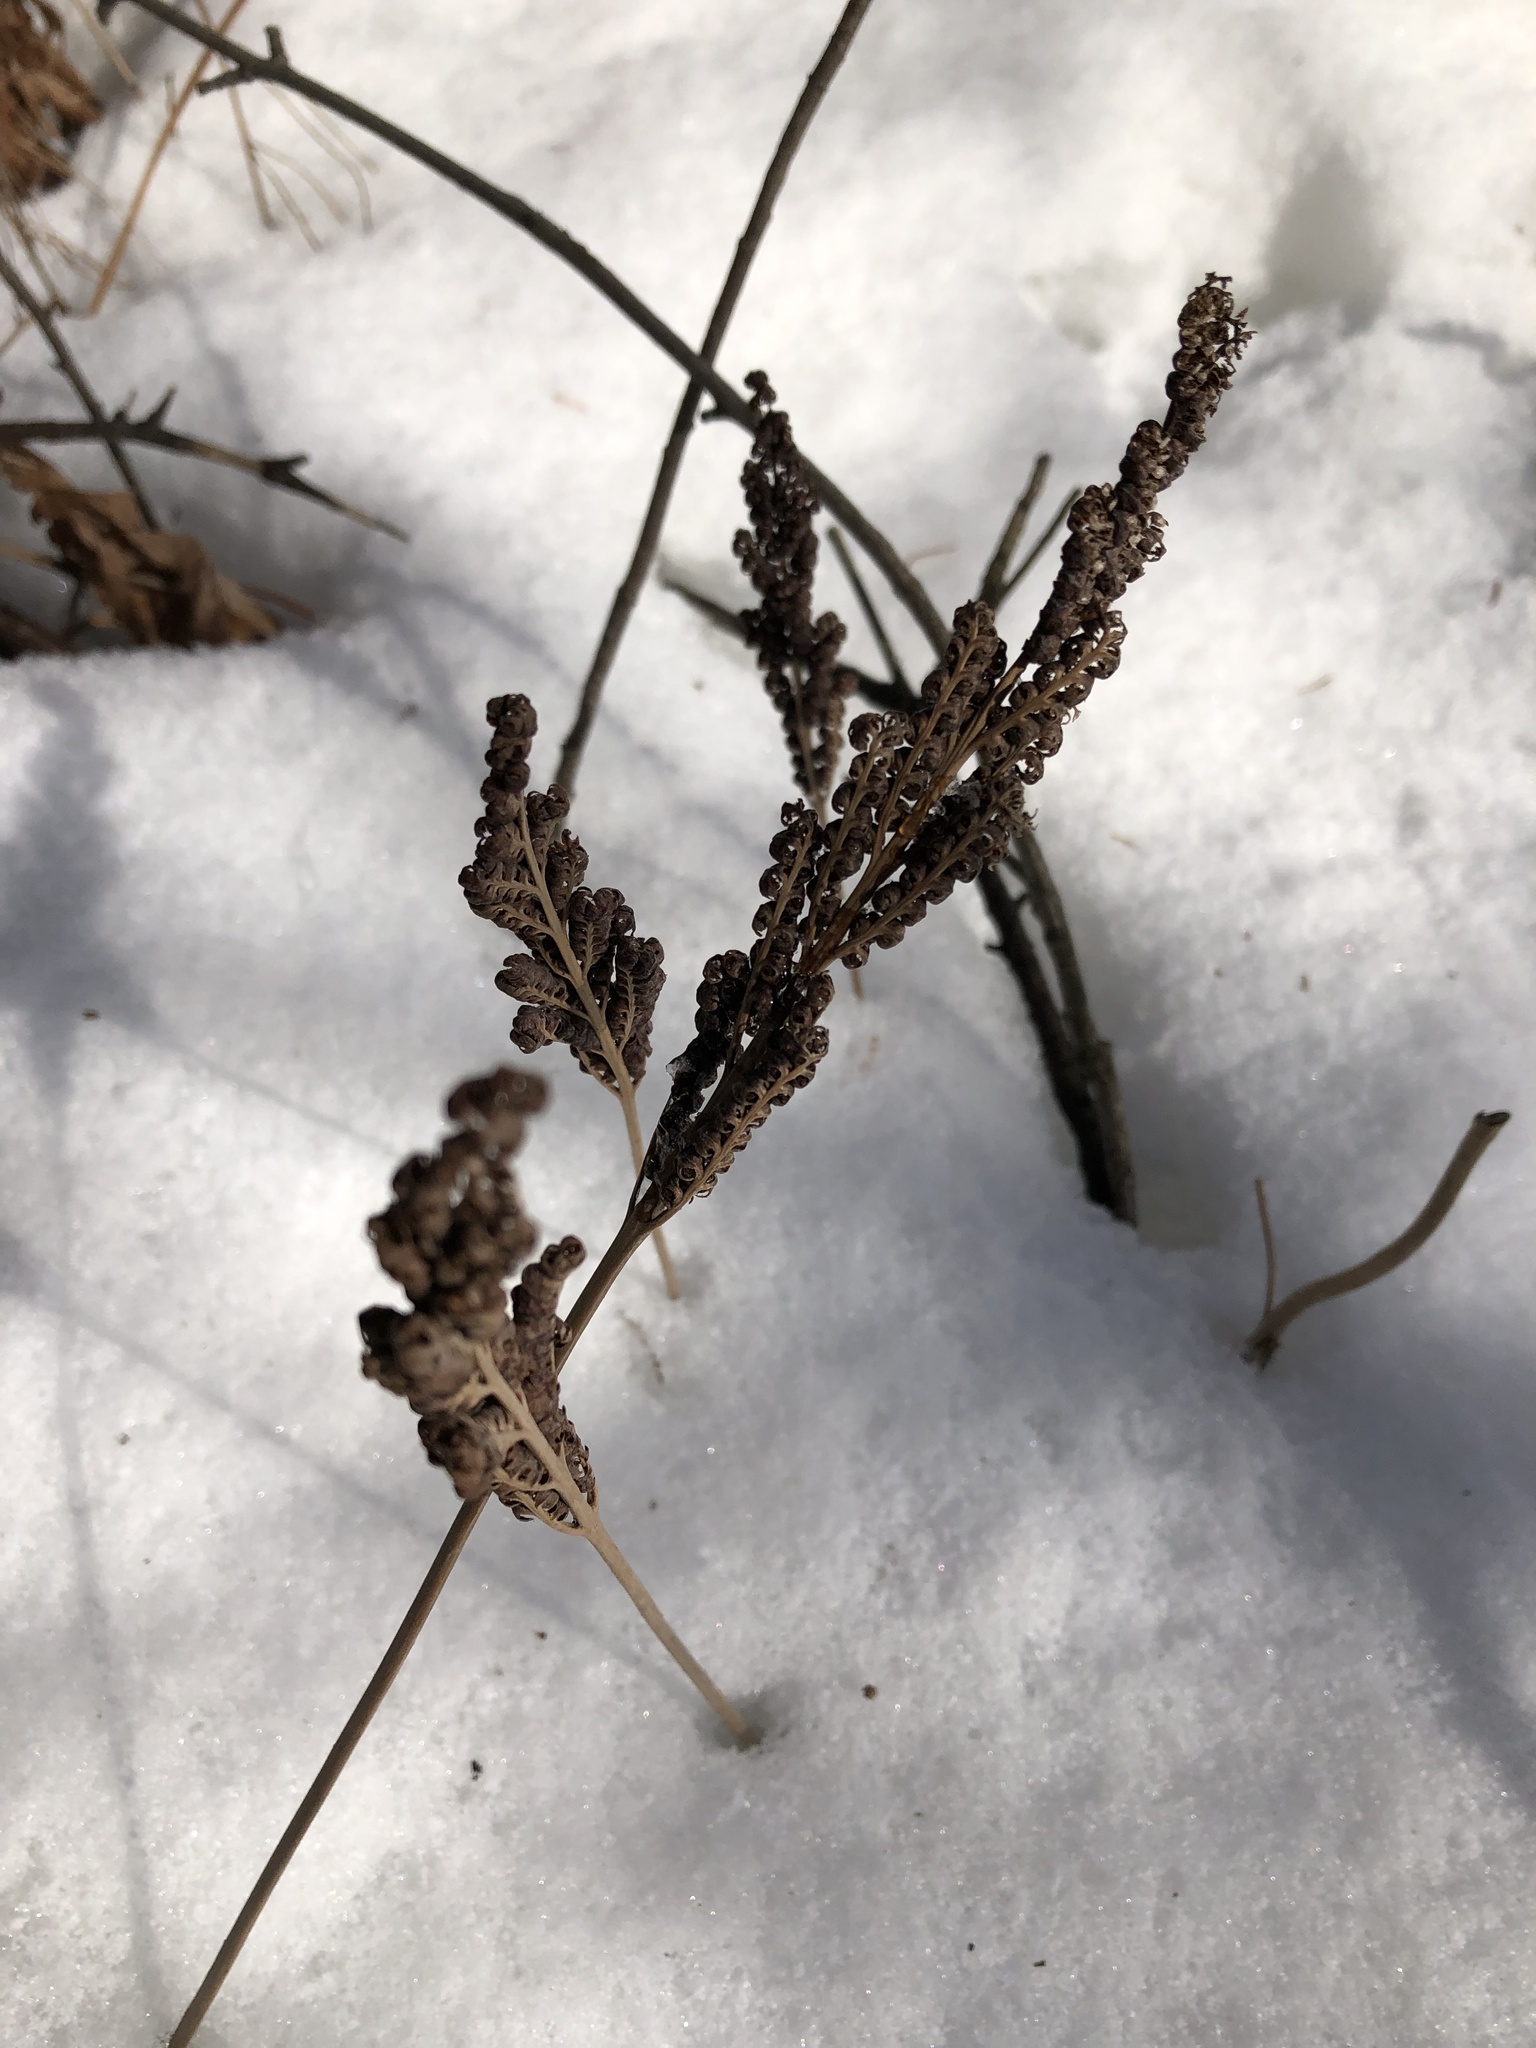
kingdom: Plantae
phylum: Tracheophyta
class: Polypodiopsida
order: Polypodiales
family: Onocleaceae
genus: Onoclea
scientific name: Onoclea sensibilis
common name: Sensitive fern
